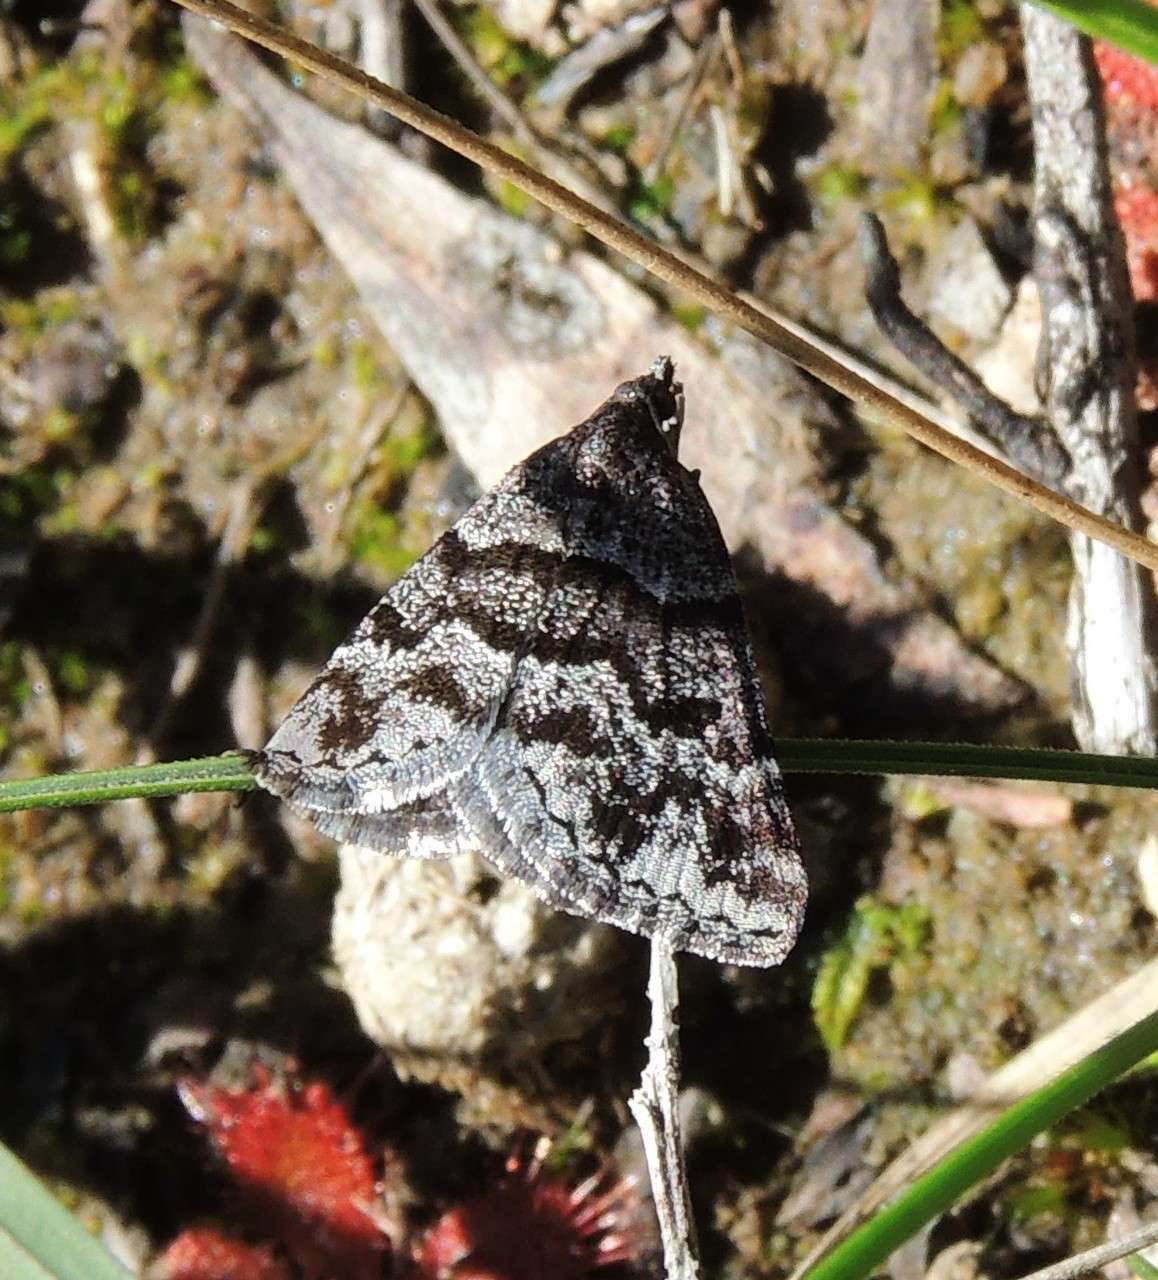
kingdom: Animalia
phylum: Arthropoda
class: Insecta
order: Lepidoptera
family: Geometridae
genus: Dichromodes
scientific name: Dichromodes ainaria
